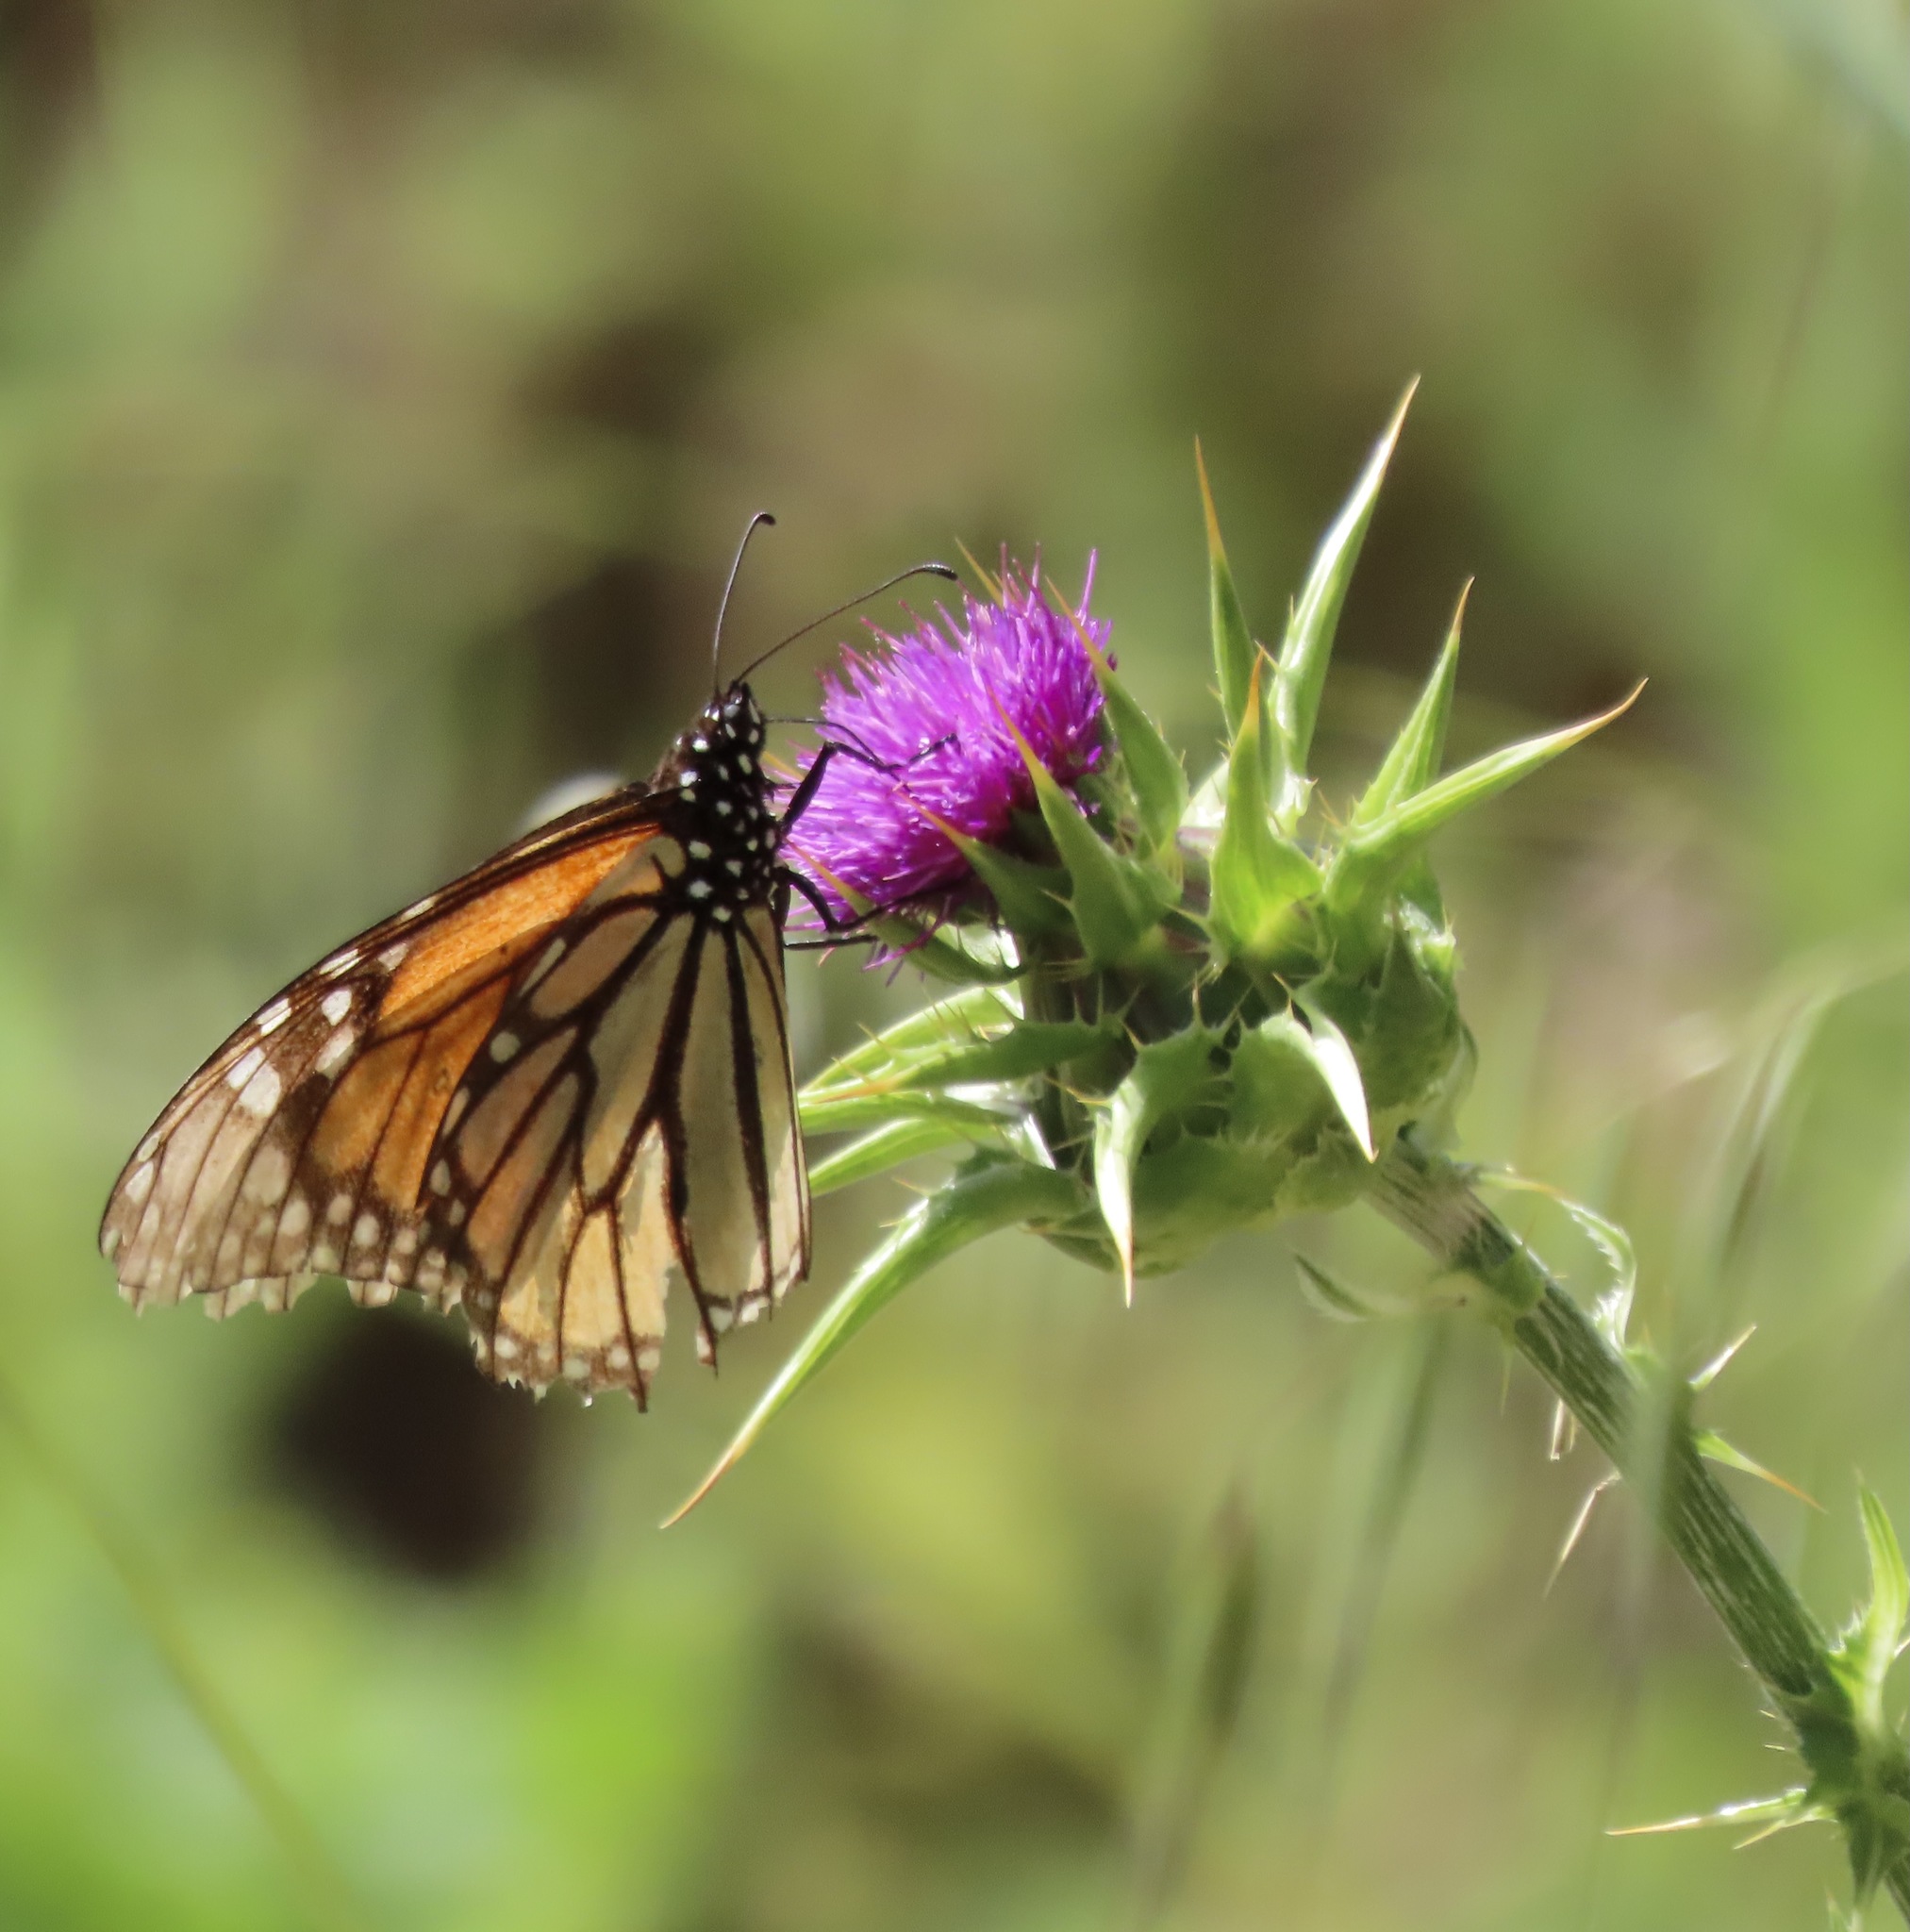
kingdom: Animalia
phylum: Arthropoda
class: Insecta
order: Lepidoptera
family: Nymphalidae
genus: Danaus
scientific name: Danaus plexippus
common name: Monarch
